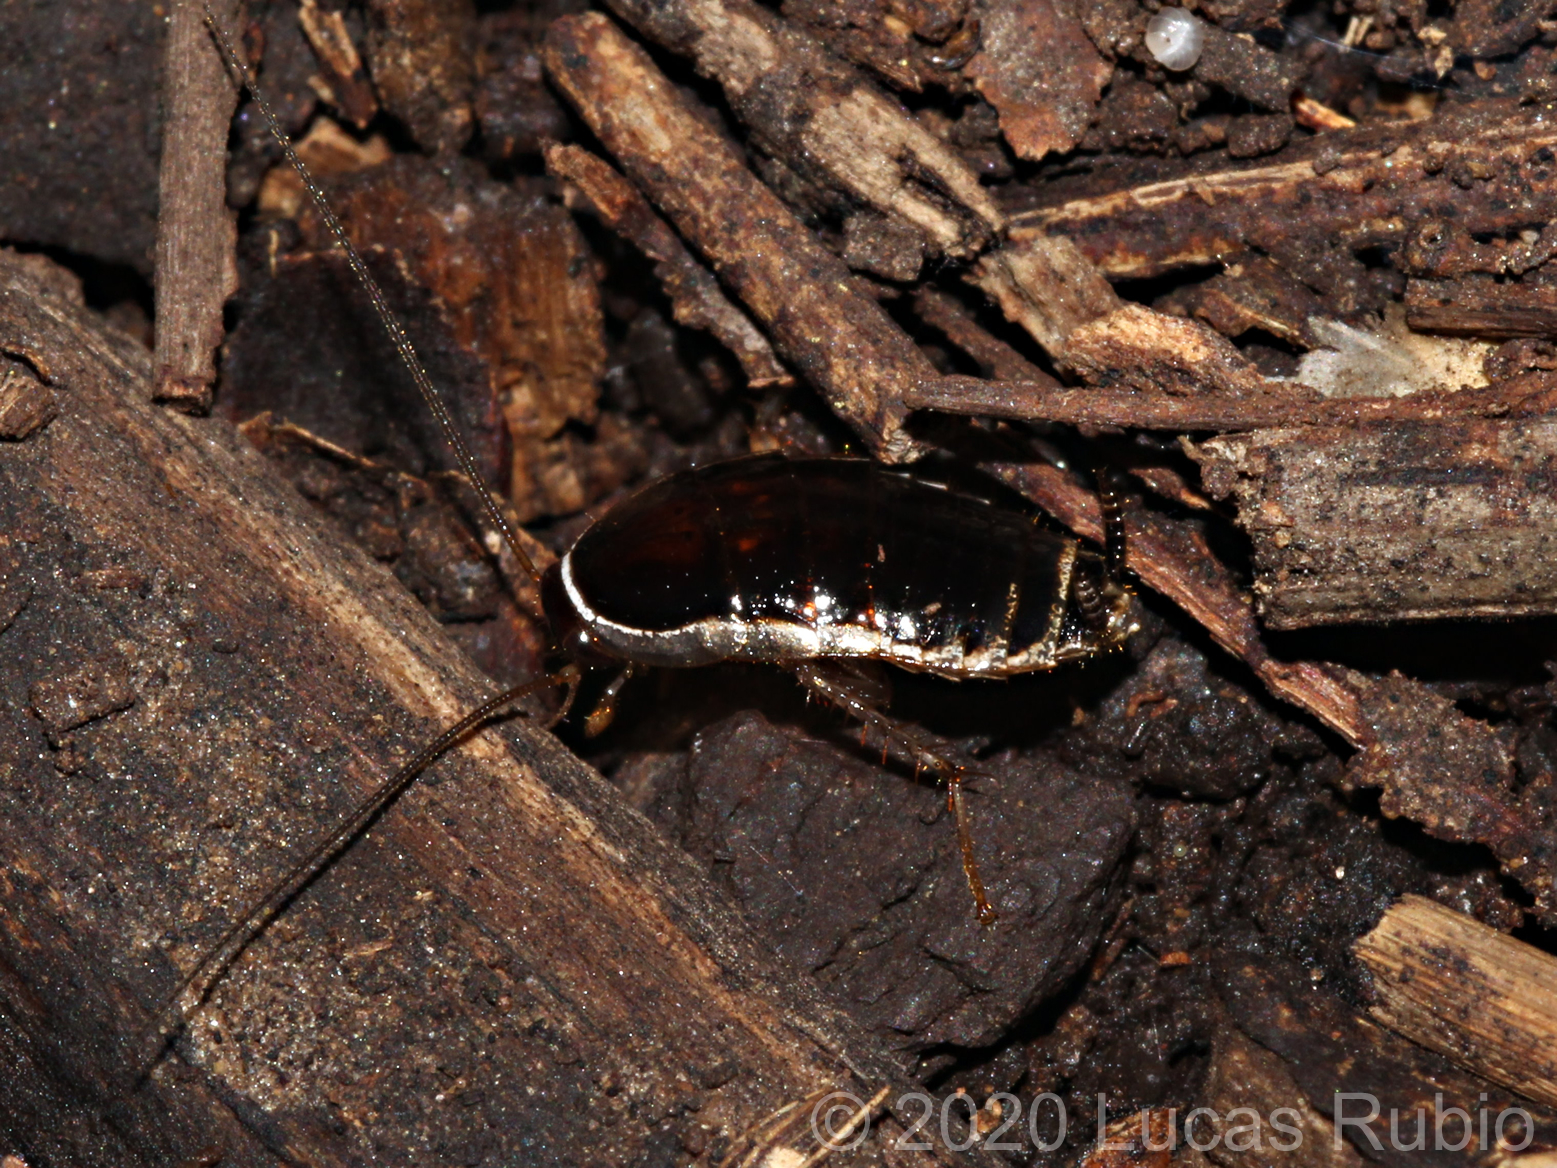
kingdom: Animalia
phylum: Arthropoda
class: Insecta
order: Blattodea
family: Ectobiidae
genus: Agmoblatta
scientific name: Agmoblatta thaxteri
